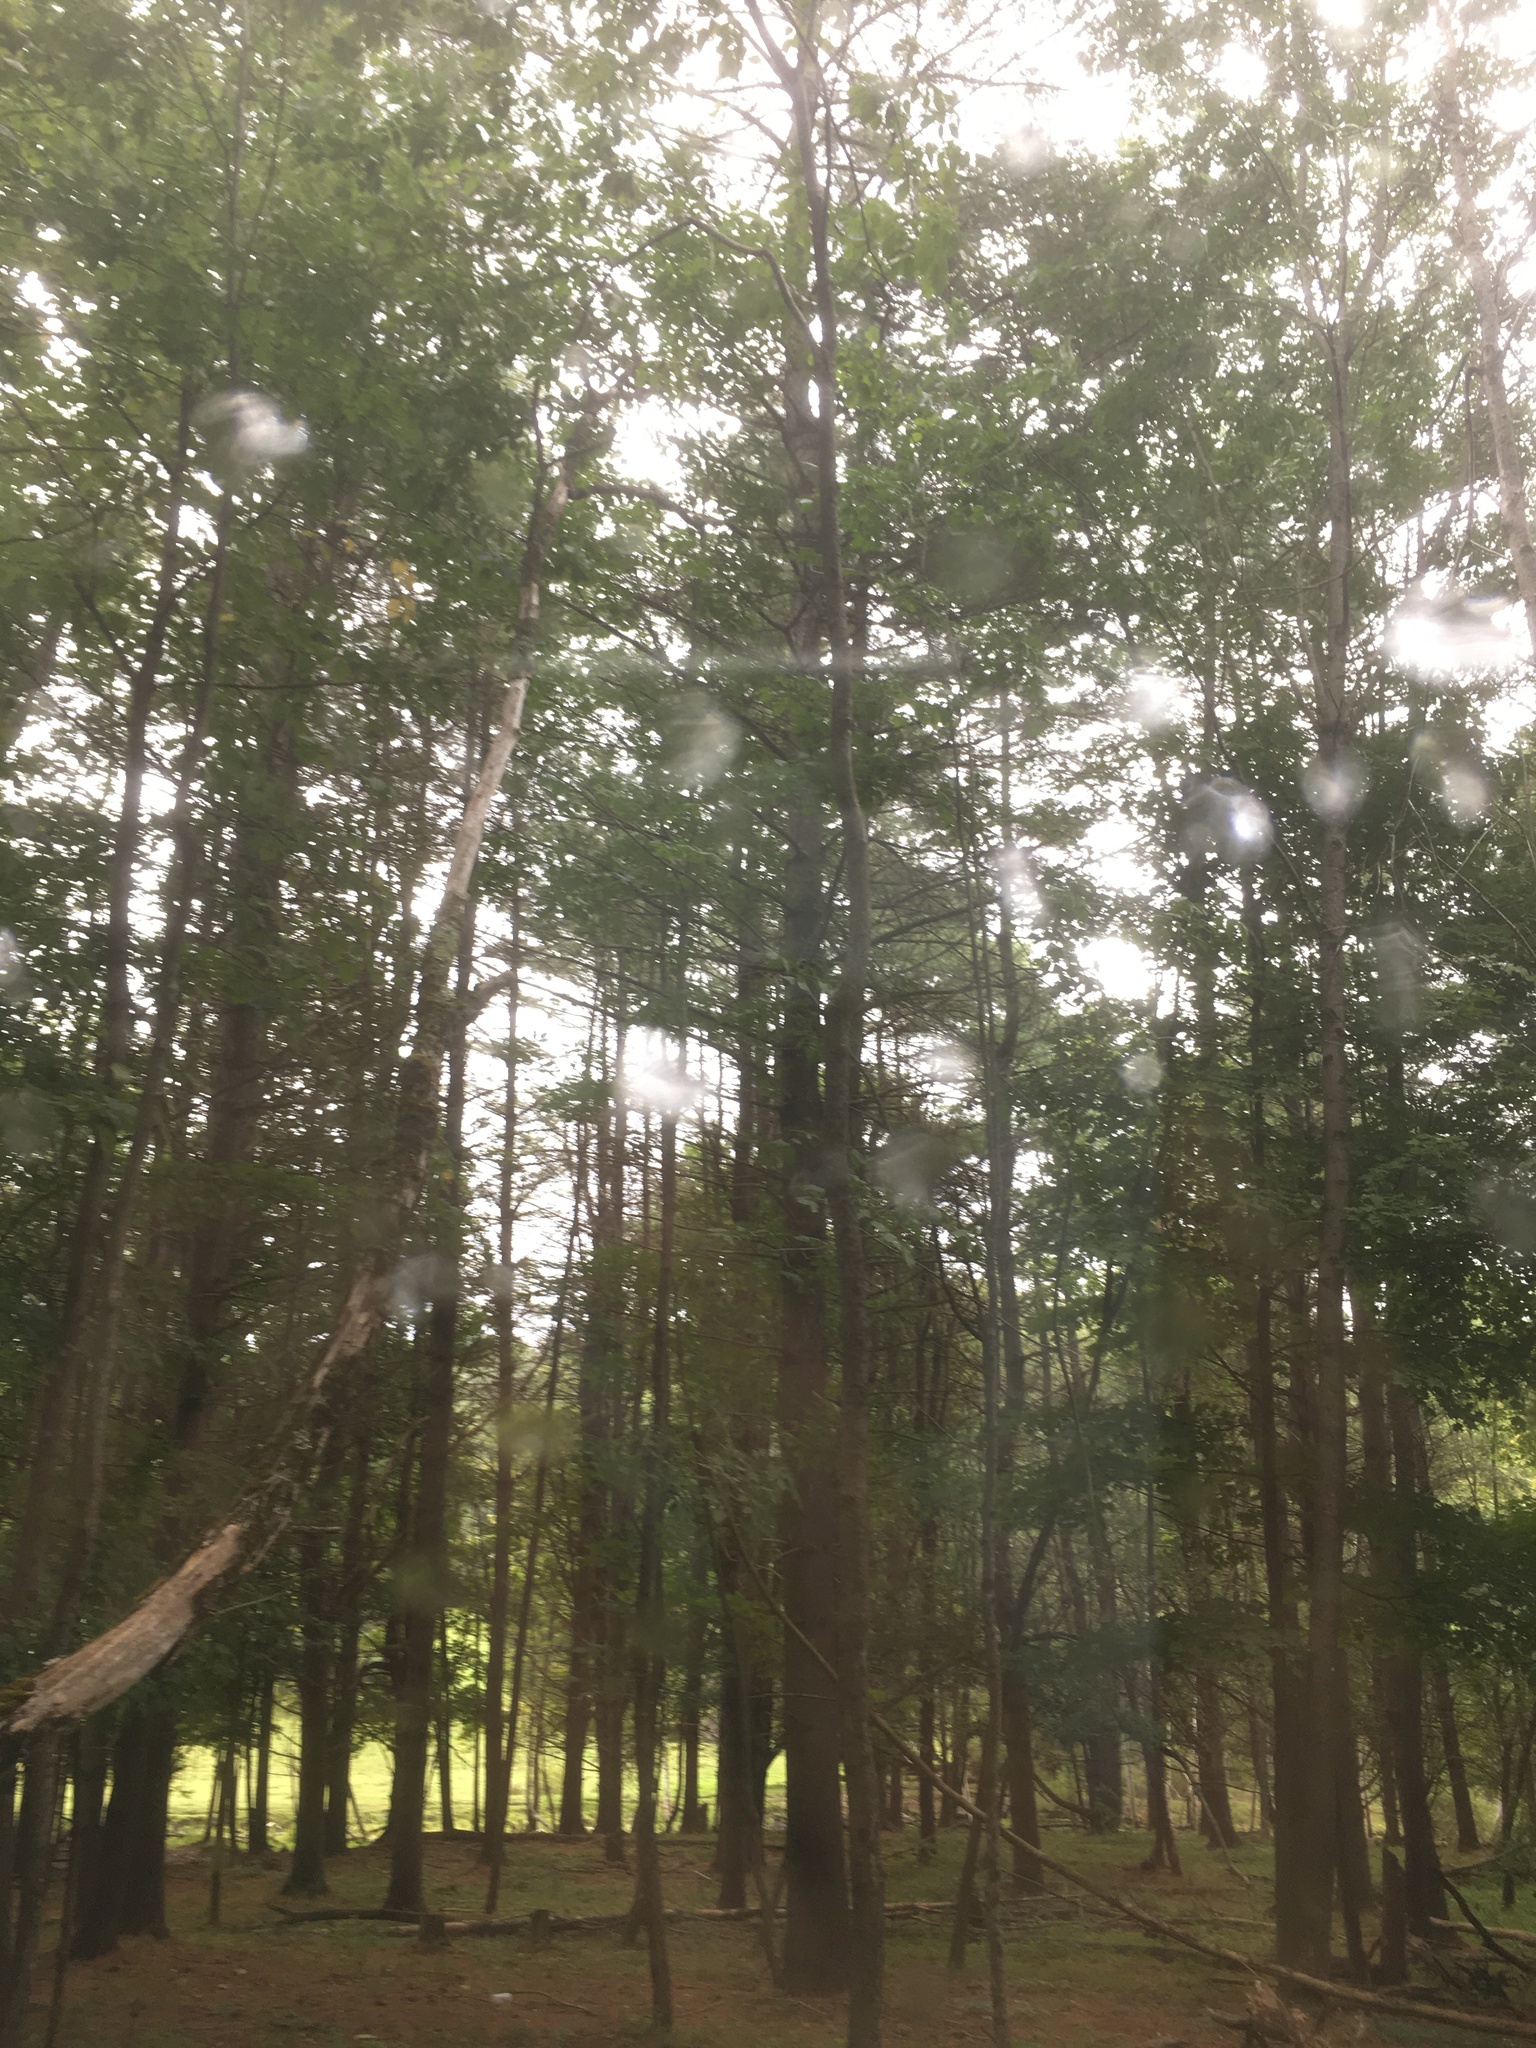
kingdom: Plantae
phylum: Tracheophyta
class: Pinopsida
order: Pinales
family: Pinaceae
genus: Pinus
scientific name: Pinus strobus
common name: Weymouth pine
